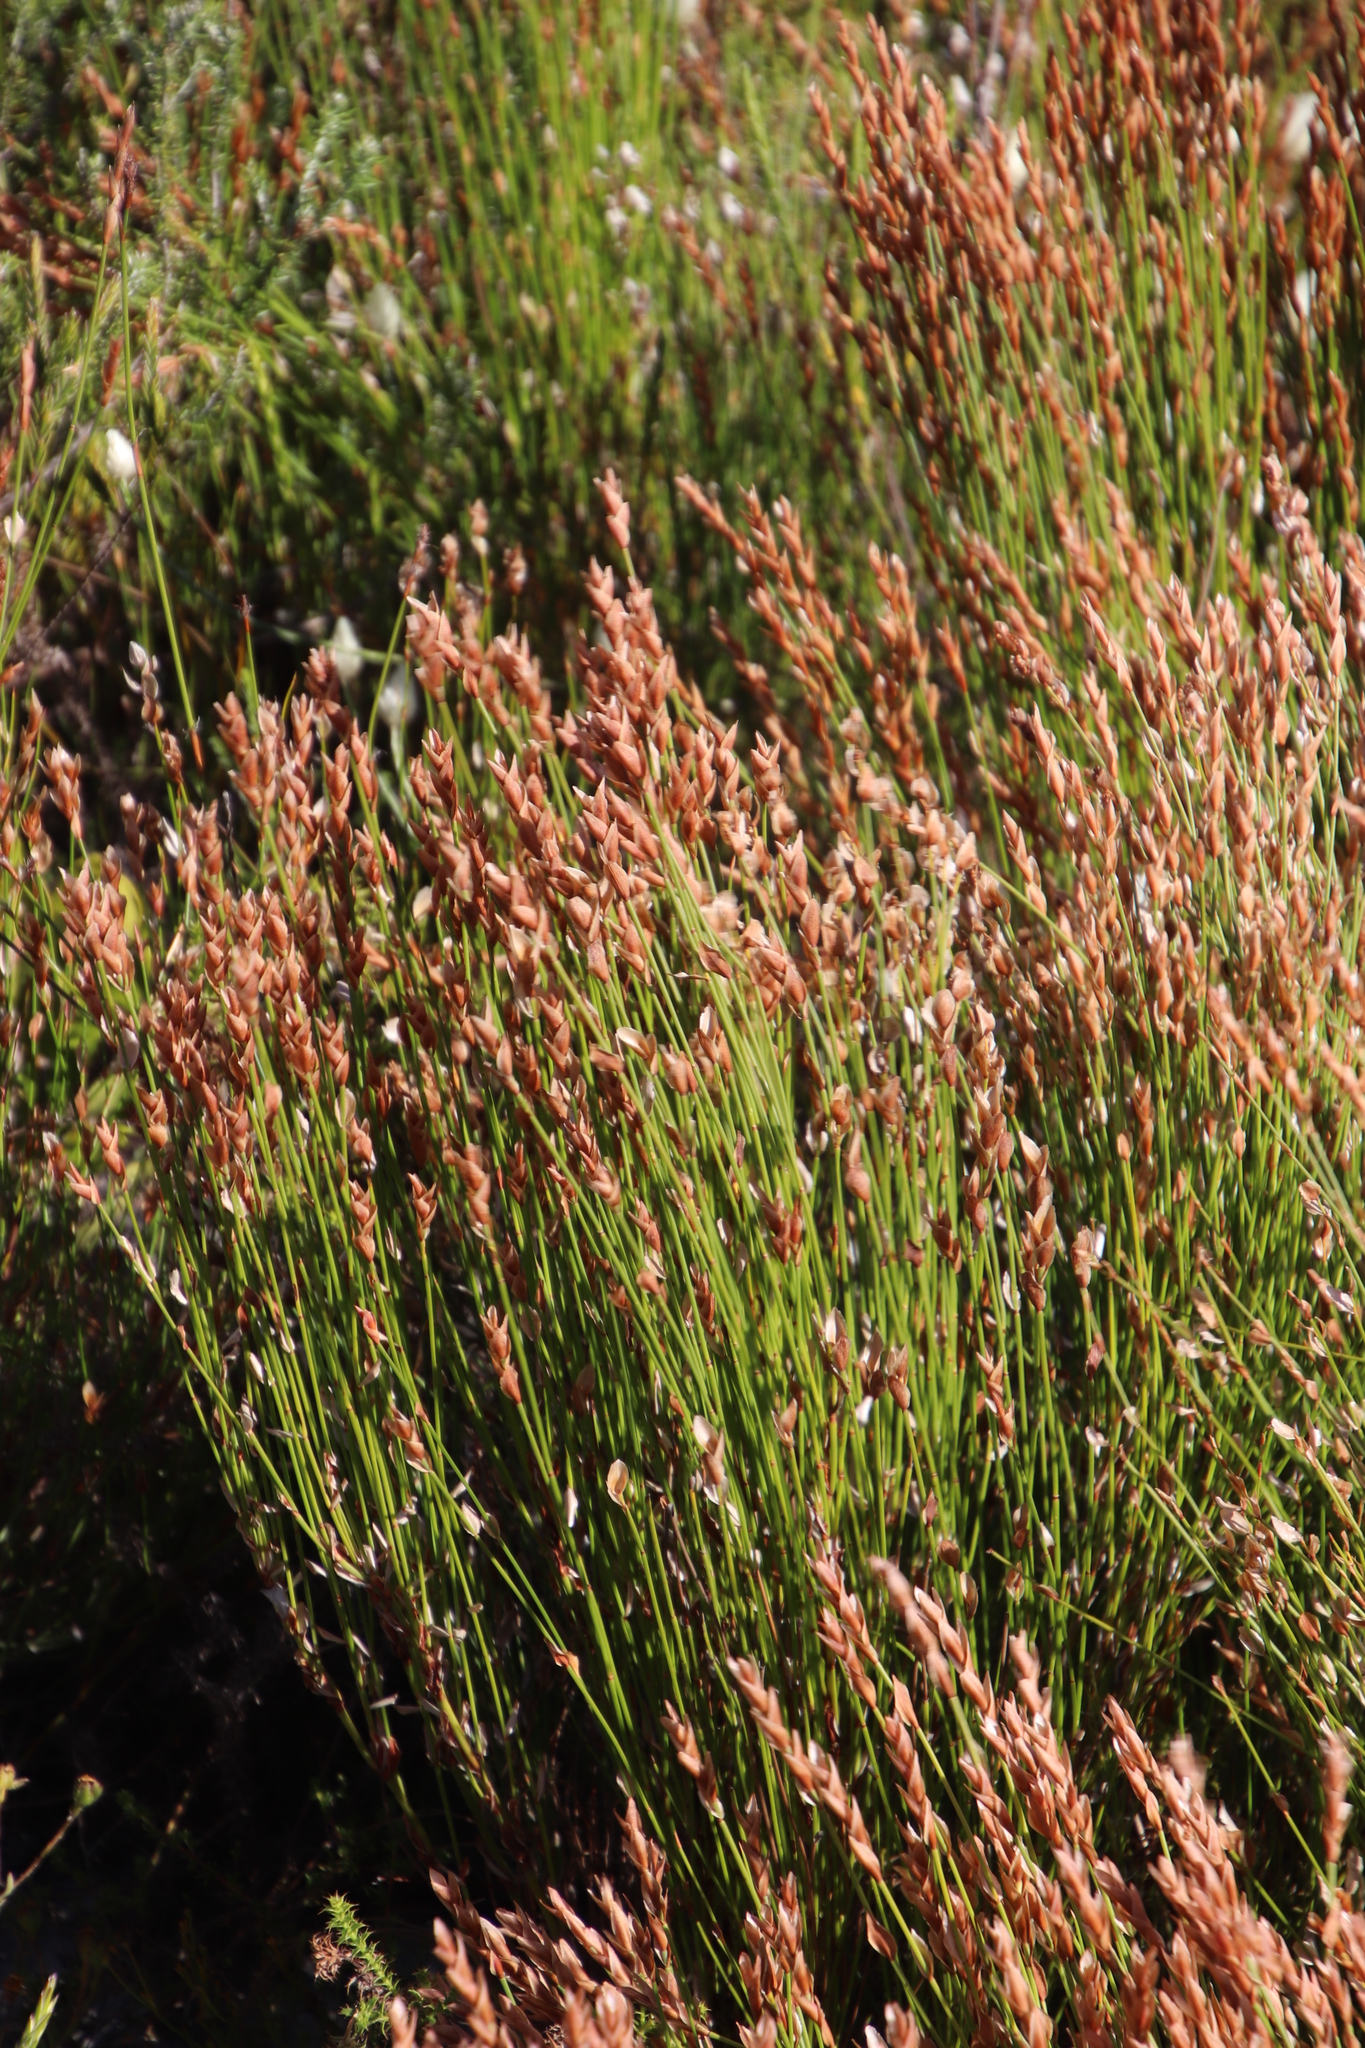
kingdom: Plantae
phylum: Tracheophyta
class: Liliopsida
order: Poales
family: Restionaceae
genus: Elegia
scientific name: Elegia stipularis
